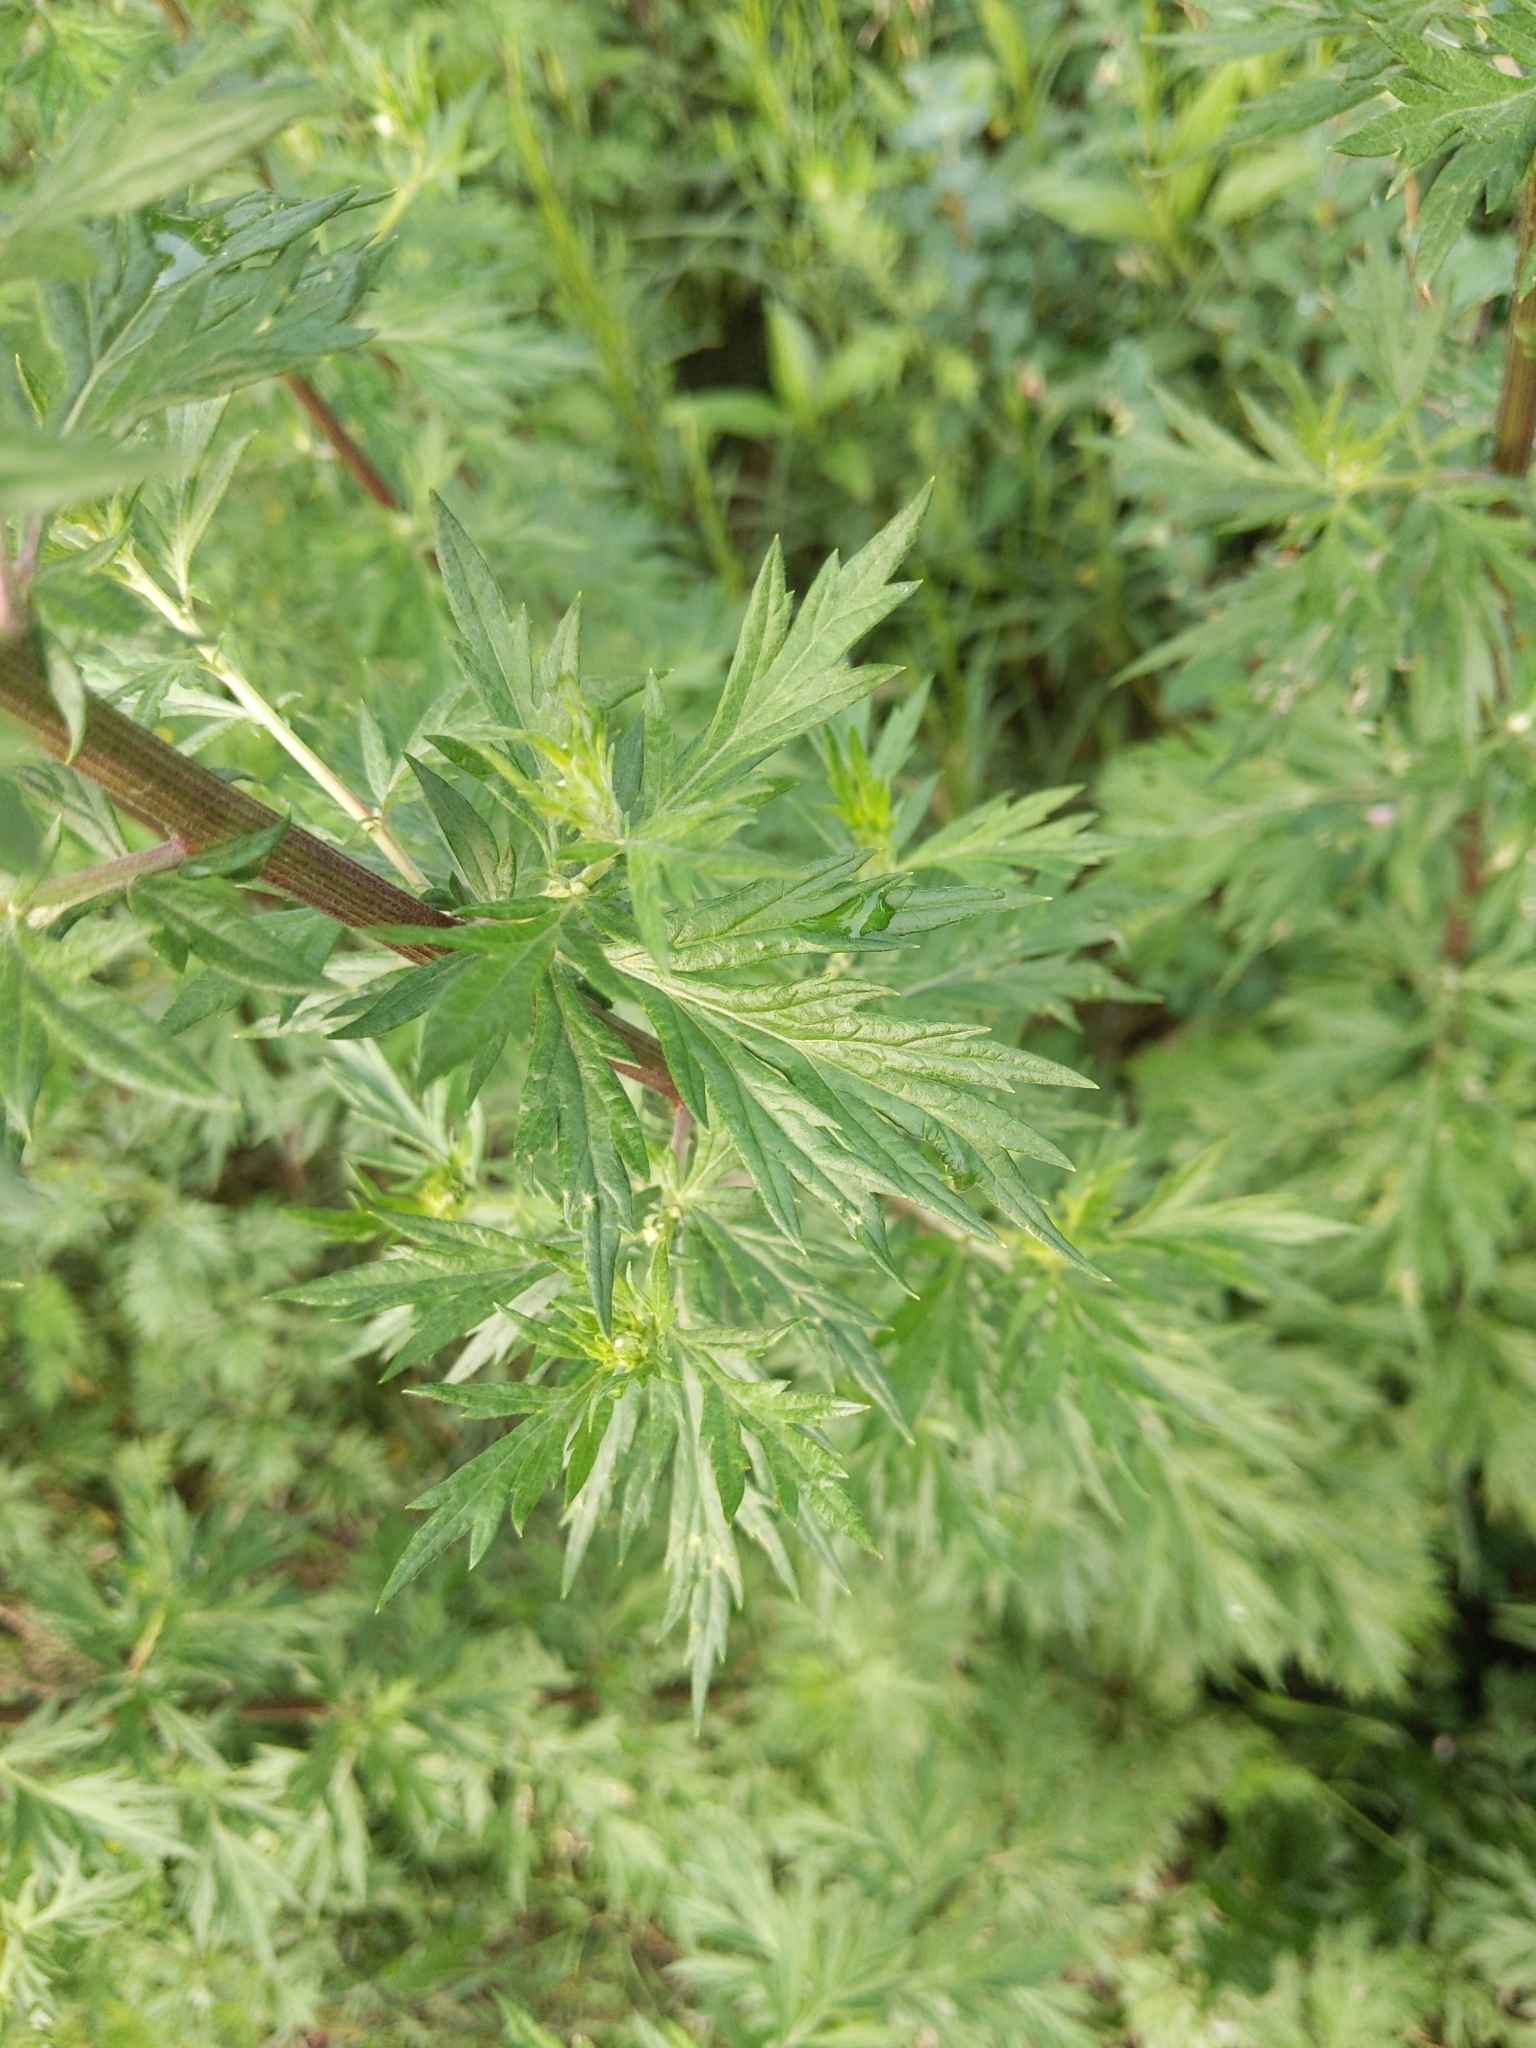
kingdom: Plantae
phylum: Tracheophyta
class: Magnoliopsida
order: Asterales
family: Asteraceae
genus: Artemisia
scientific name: Artemisia vulgaris
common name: Mugwort
